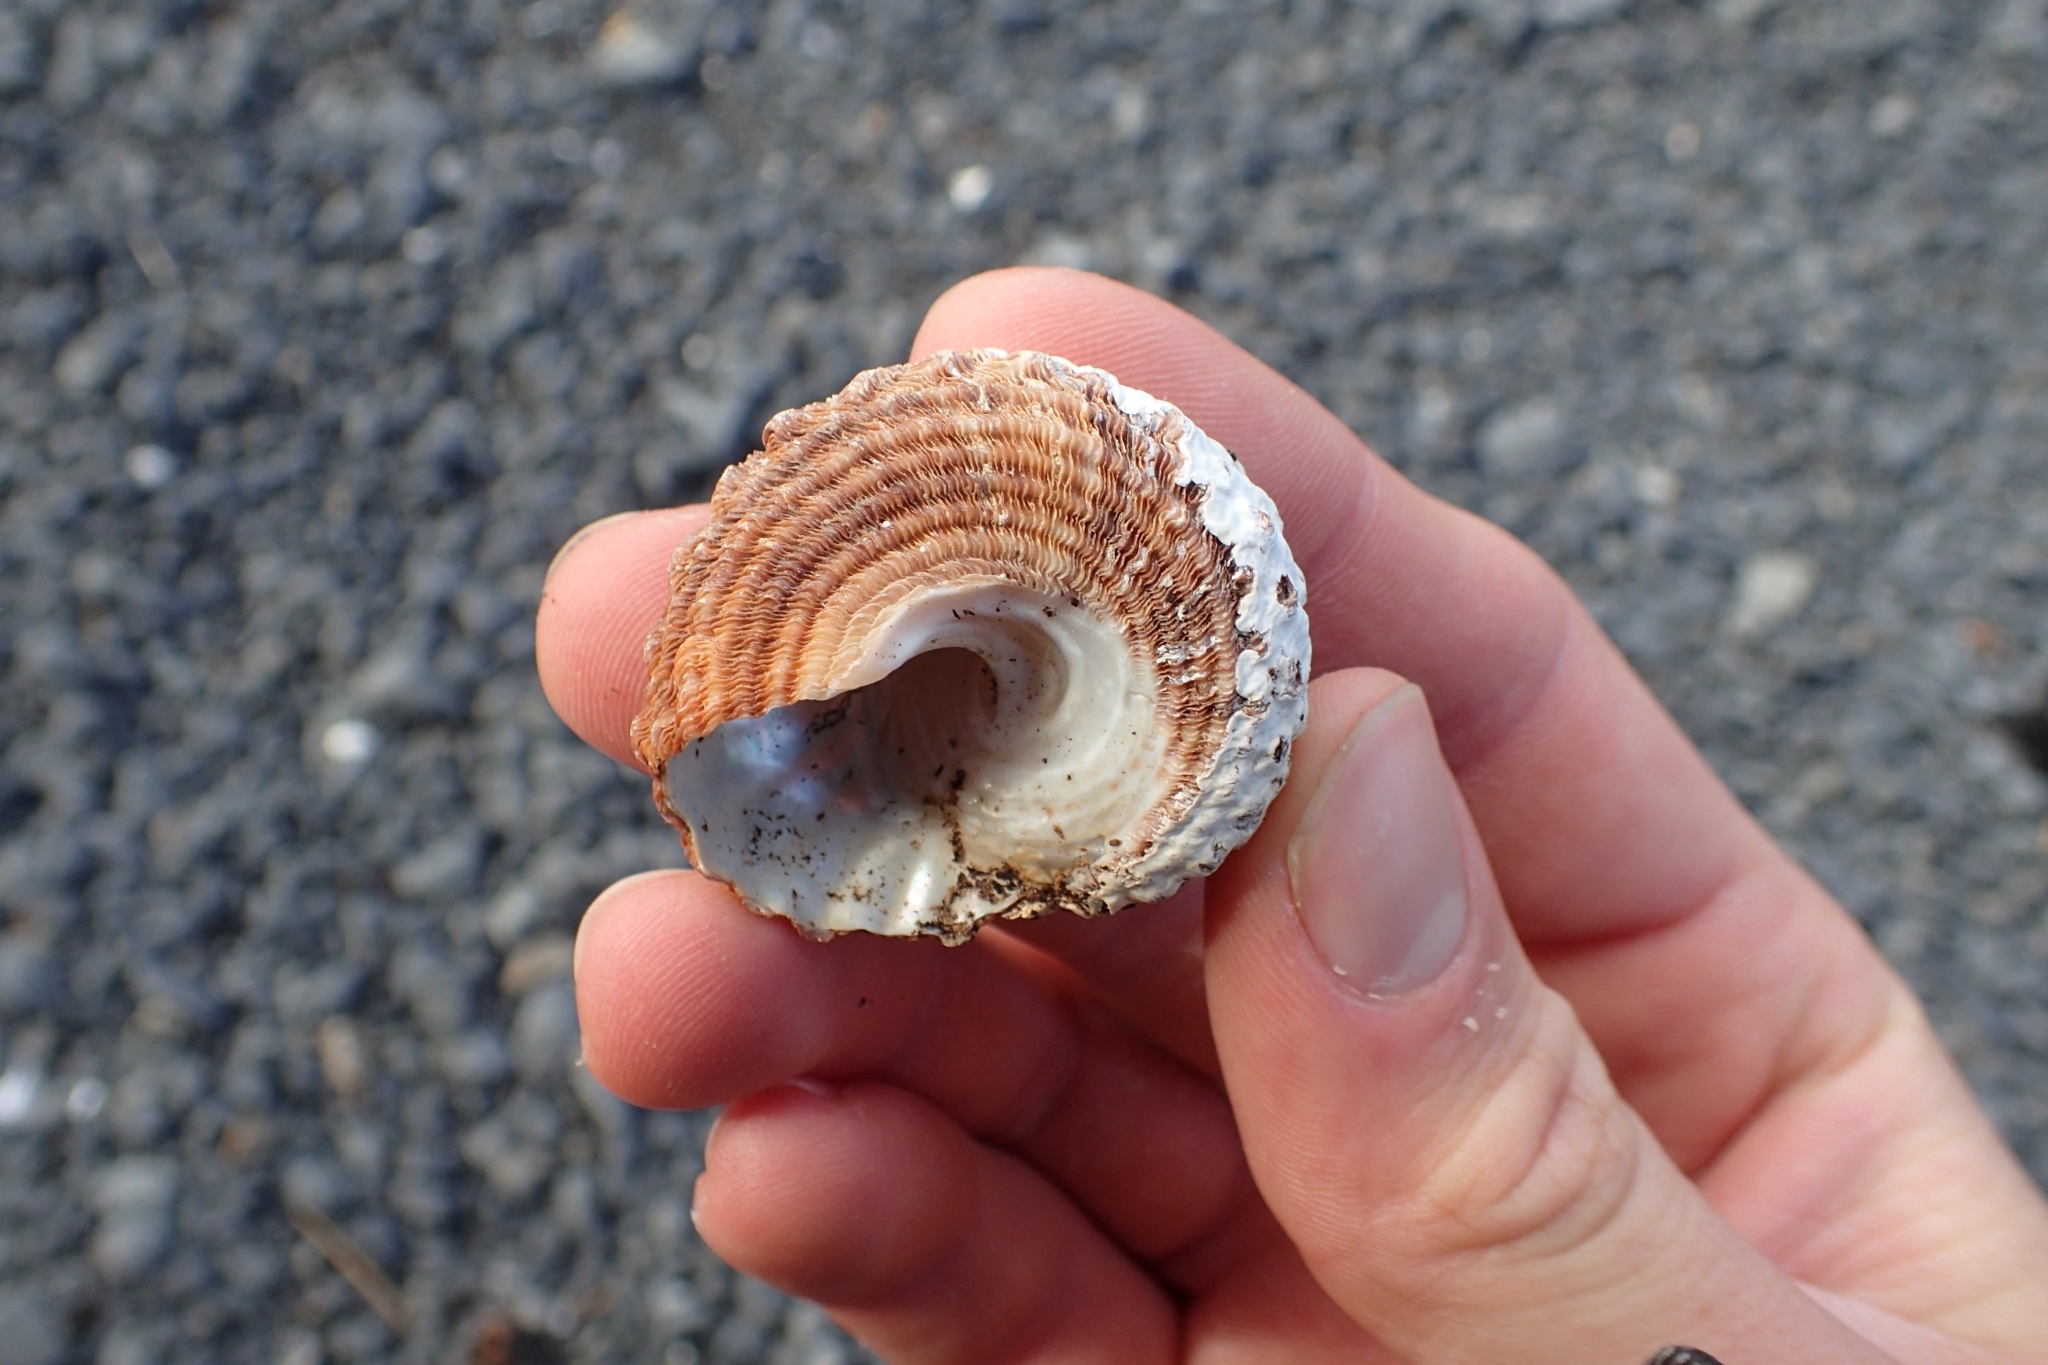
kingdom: Animalia
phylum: Mollusca
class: Gastropoda
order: Trochida
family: Turbinidae
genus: Cookia
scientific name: Cookia sulcata
